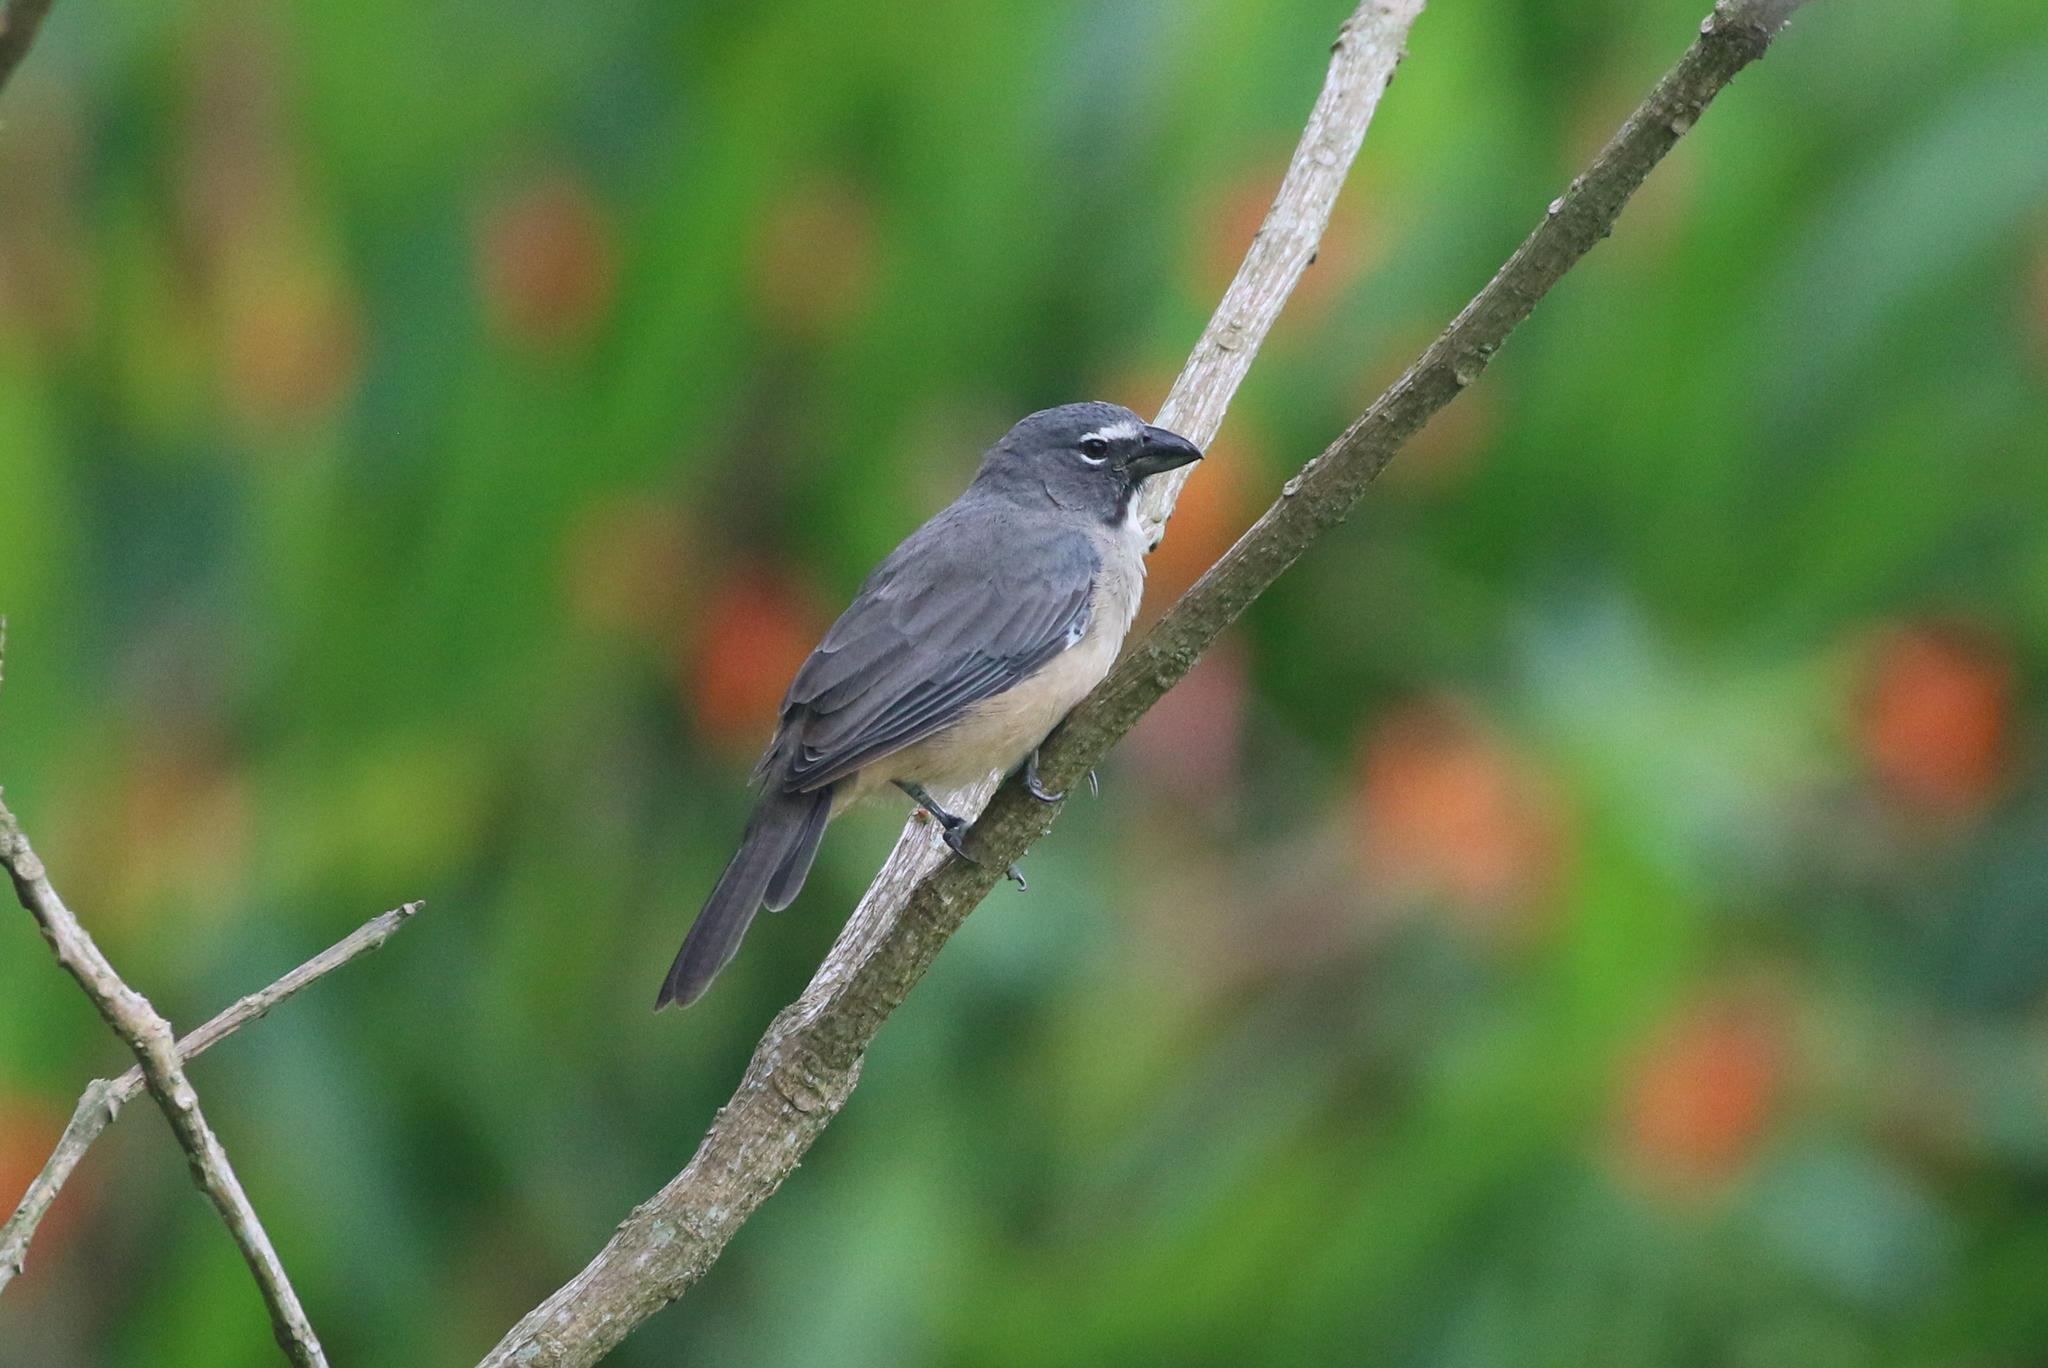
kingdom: Animalia
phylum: Chordata
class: Aves
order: Passeriformes
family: Thraupidae
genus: Saltator
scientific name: Saltator olivascens
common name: Caribbean grey saltator
